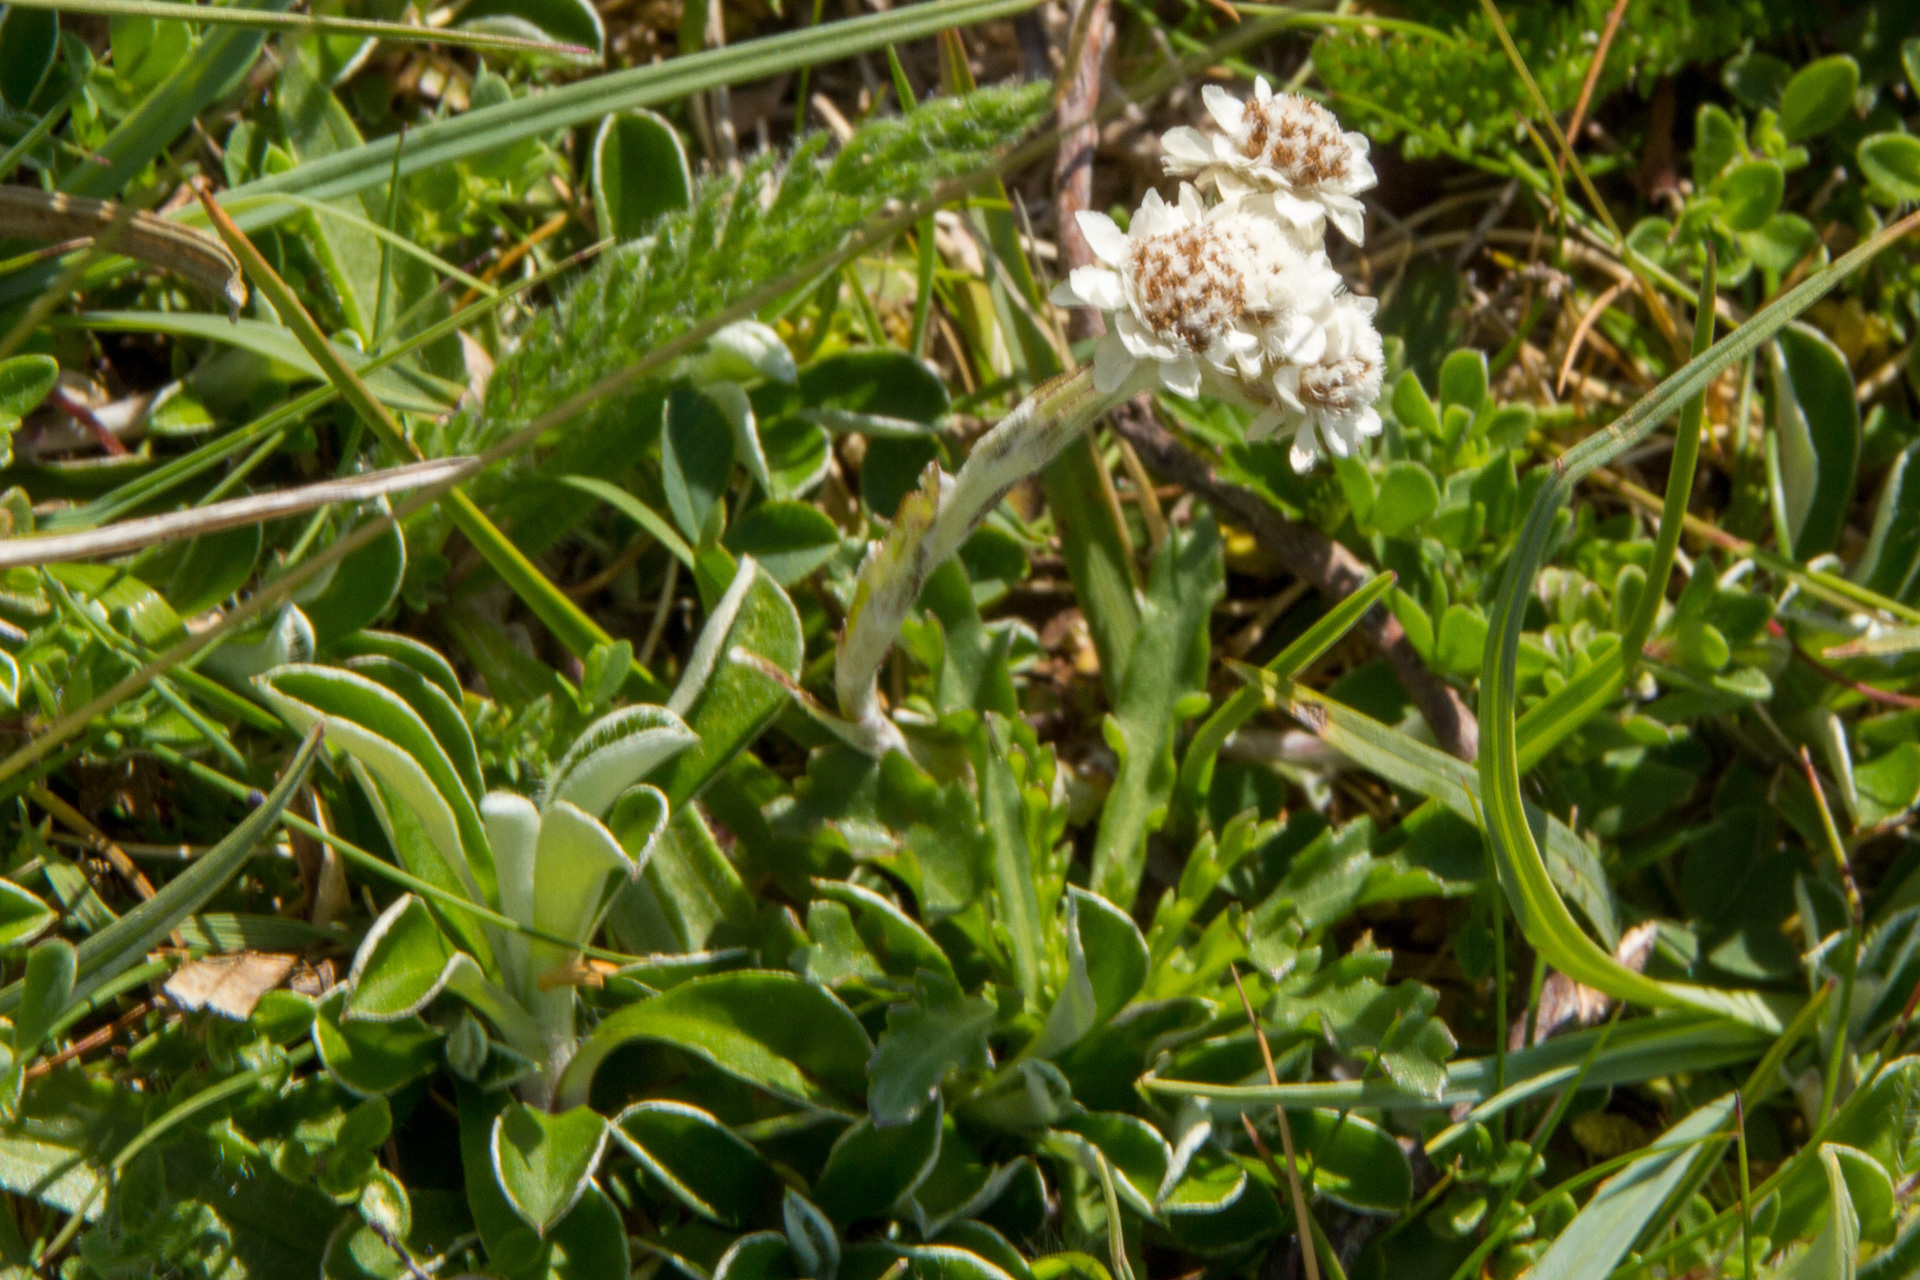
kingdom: Plantae
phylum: Tracheophyta
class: Magnoliopsida
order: Asterales
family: Asteraceae
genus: Antennaria
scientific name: Antennaria dioica
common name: Mountain everlasting
